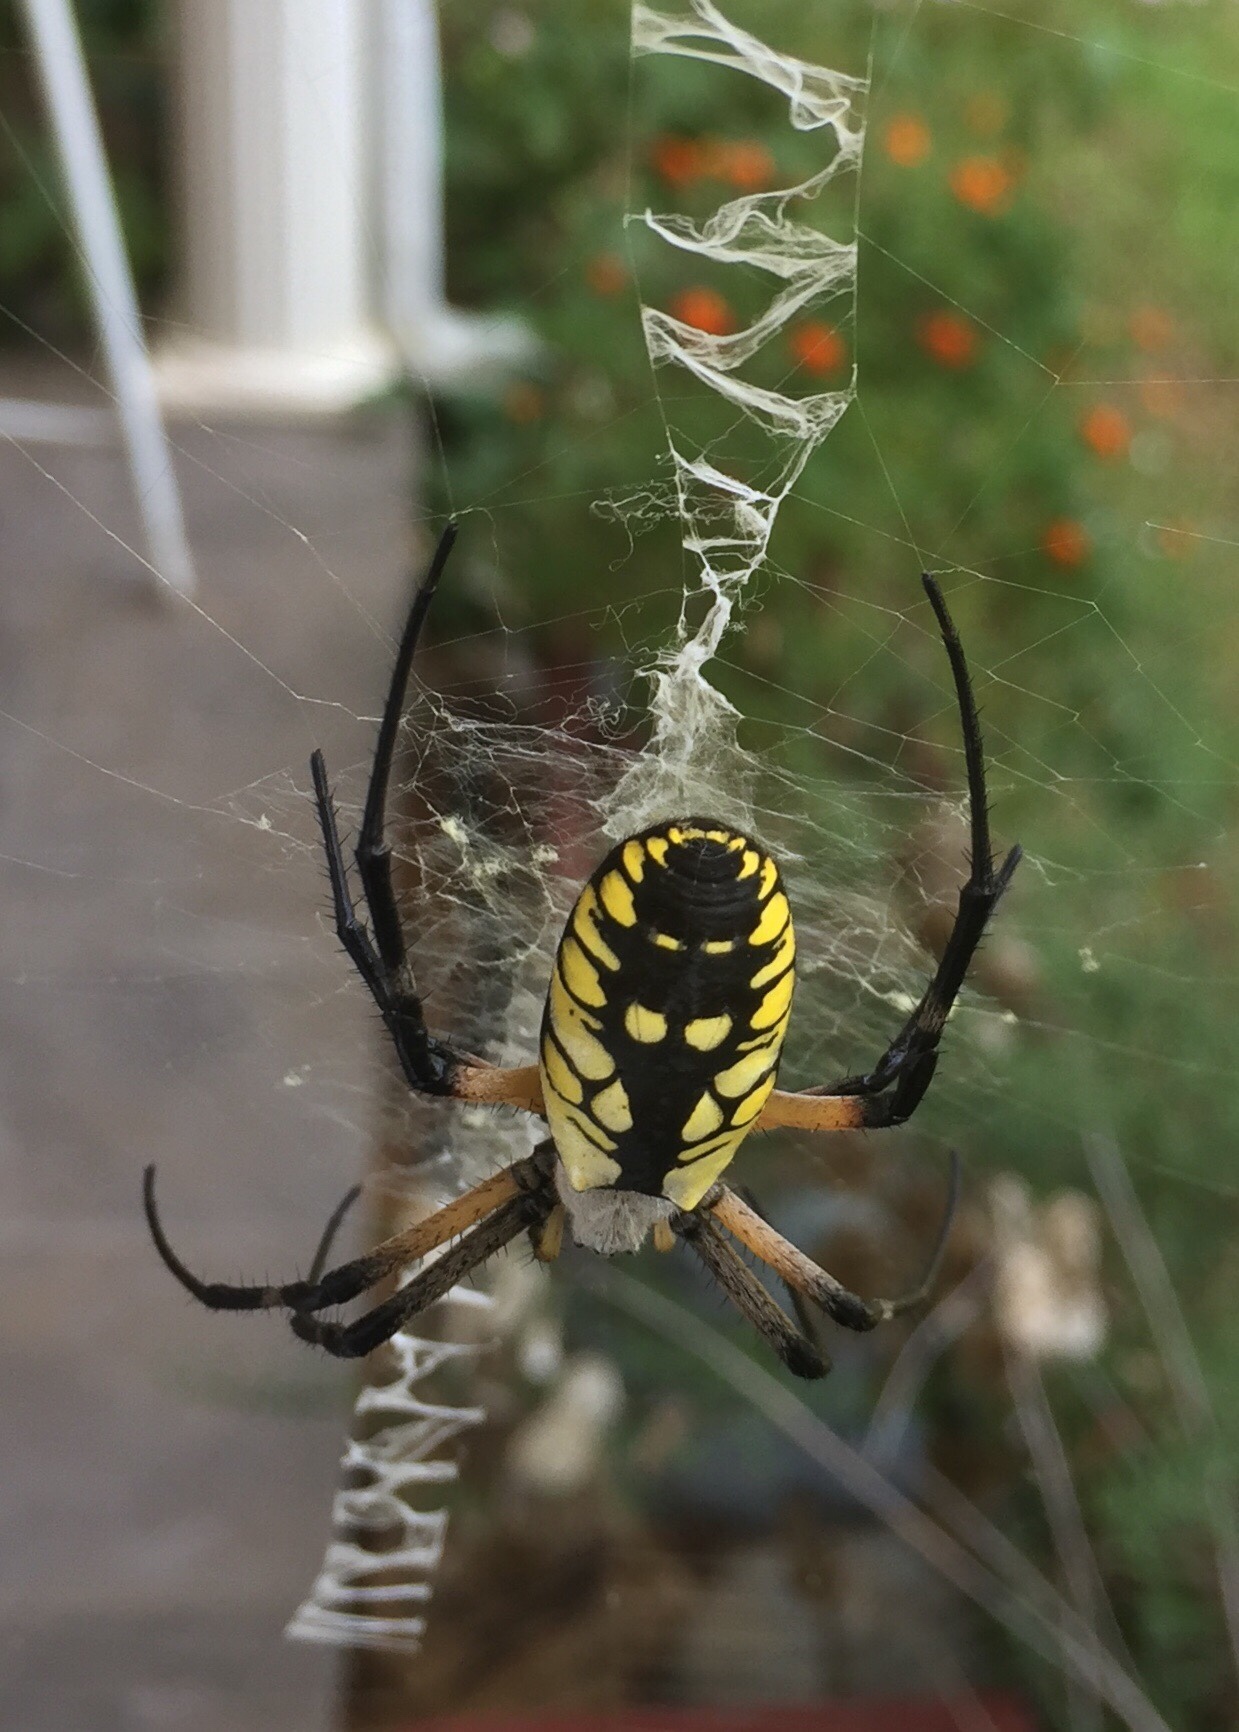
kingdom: Animalia
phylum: Arthropoda
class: Arachnida
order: Araneae
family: Araneidae
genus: Argiope
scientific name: Argiope aurantia
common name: Orb weavers
